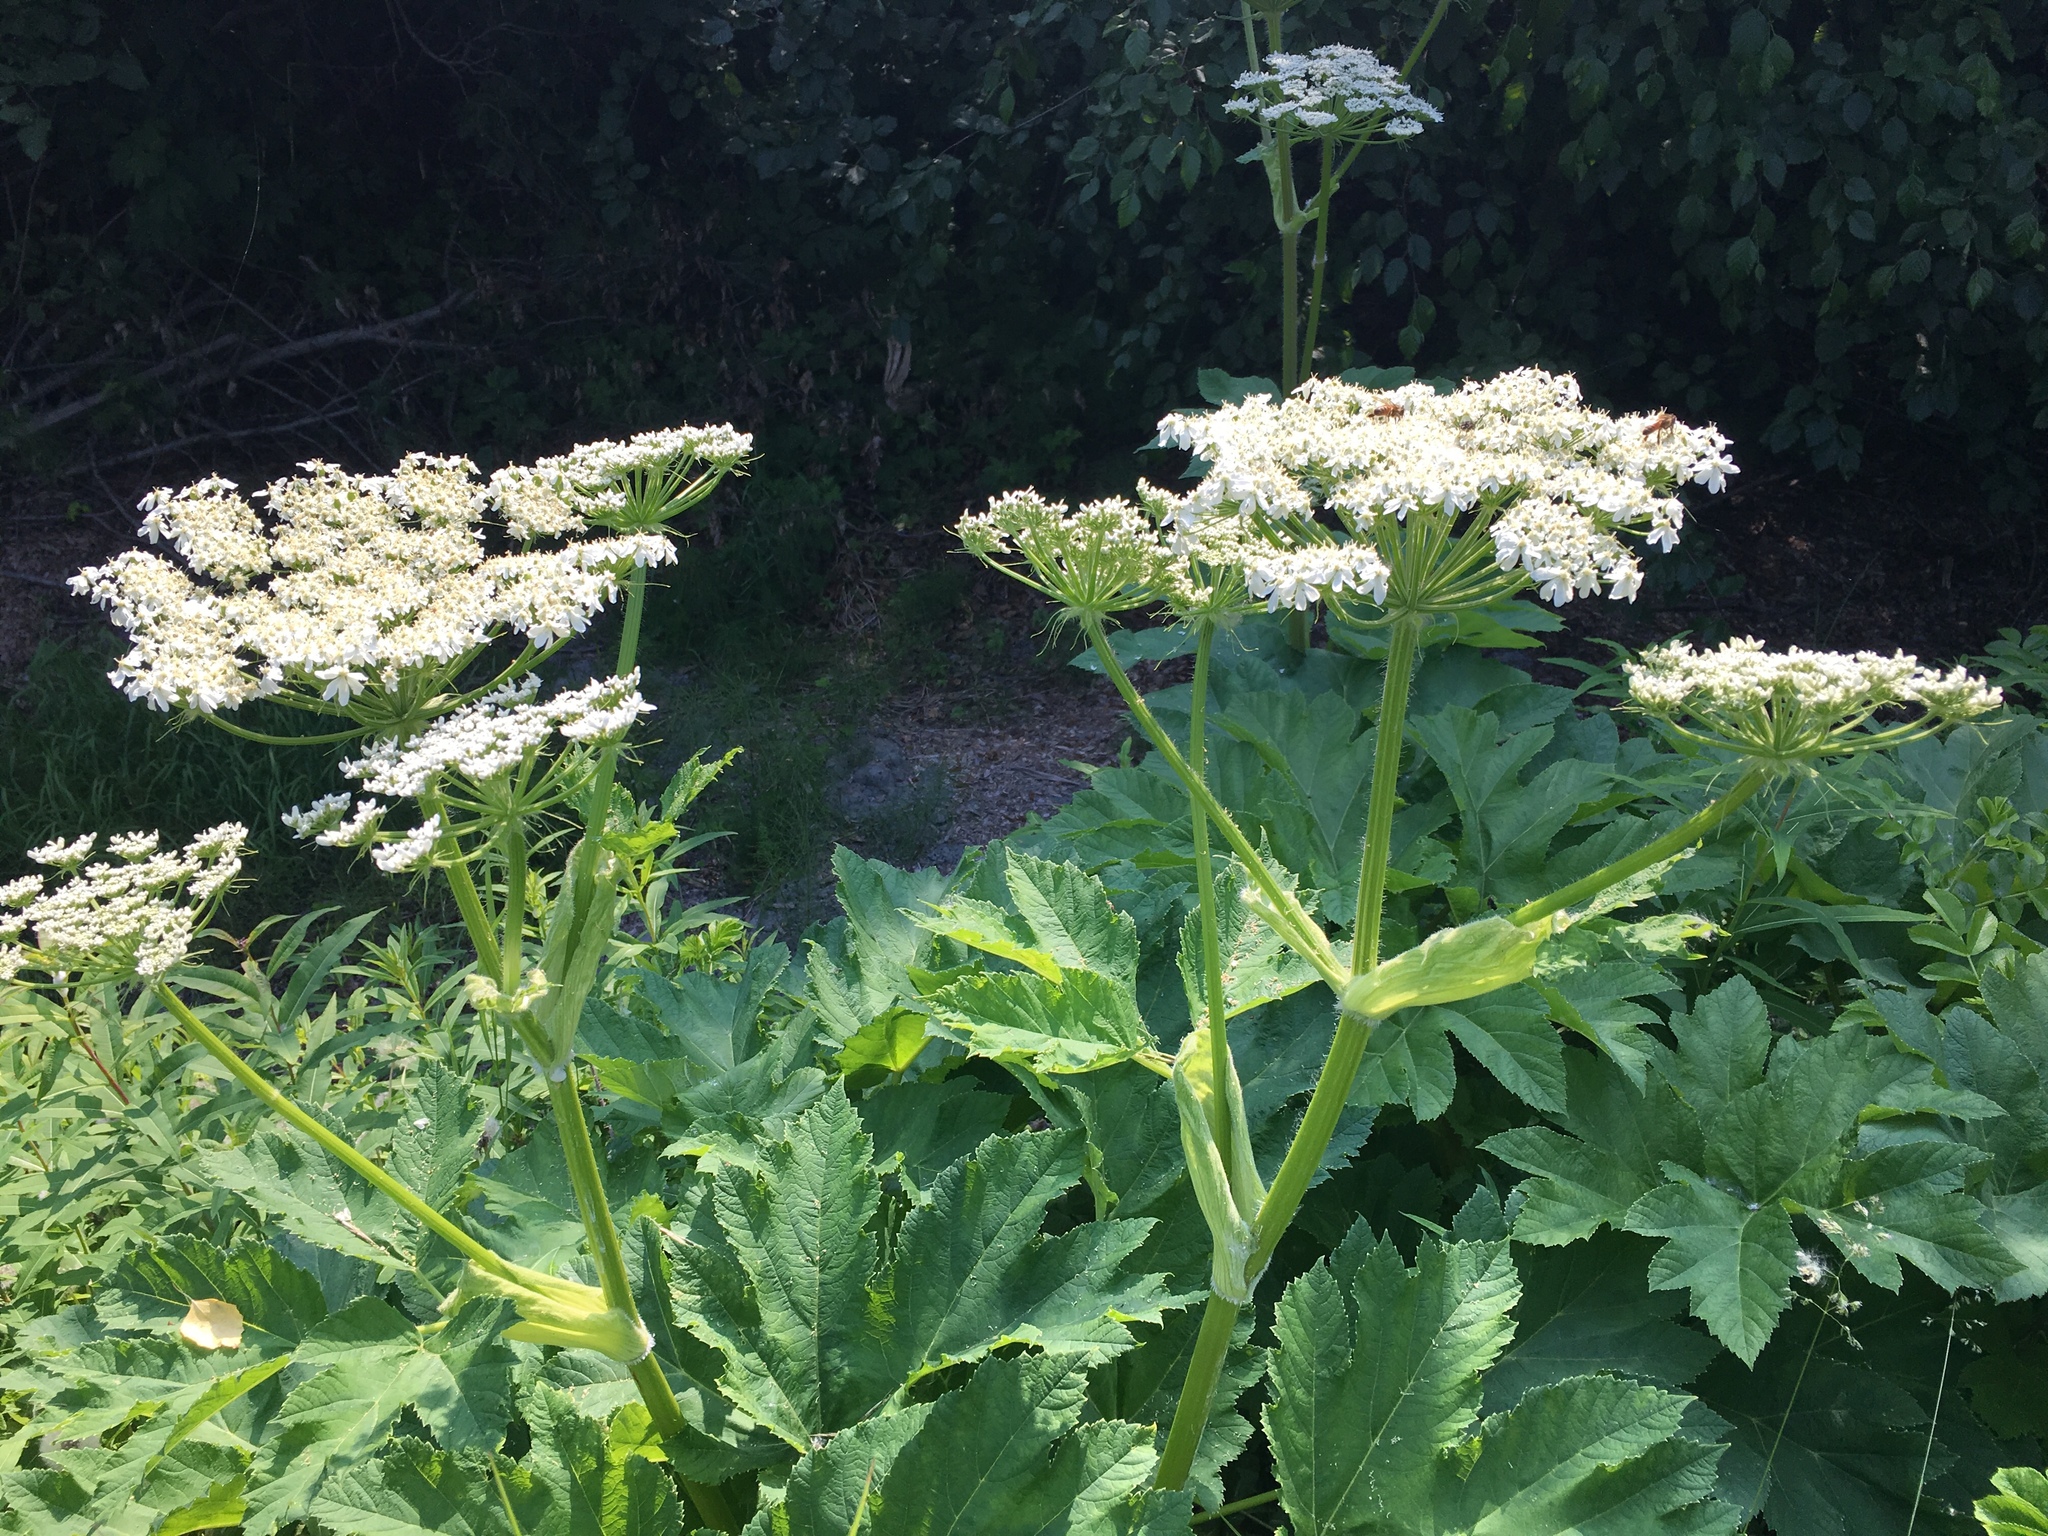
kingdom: Plantae
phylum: Tracheophyta
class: Magnoliopsida
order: Apiales
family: Apiaceae
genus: Heracleum
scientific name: Heracleum maximum
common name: American cow parsnip
